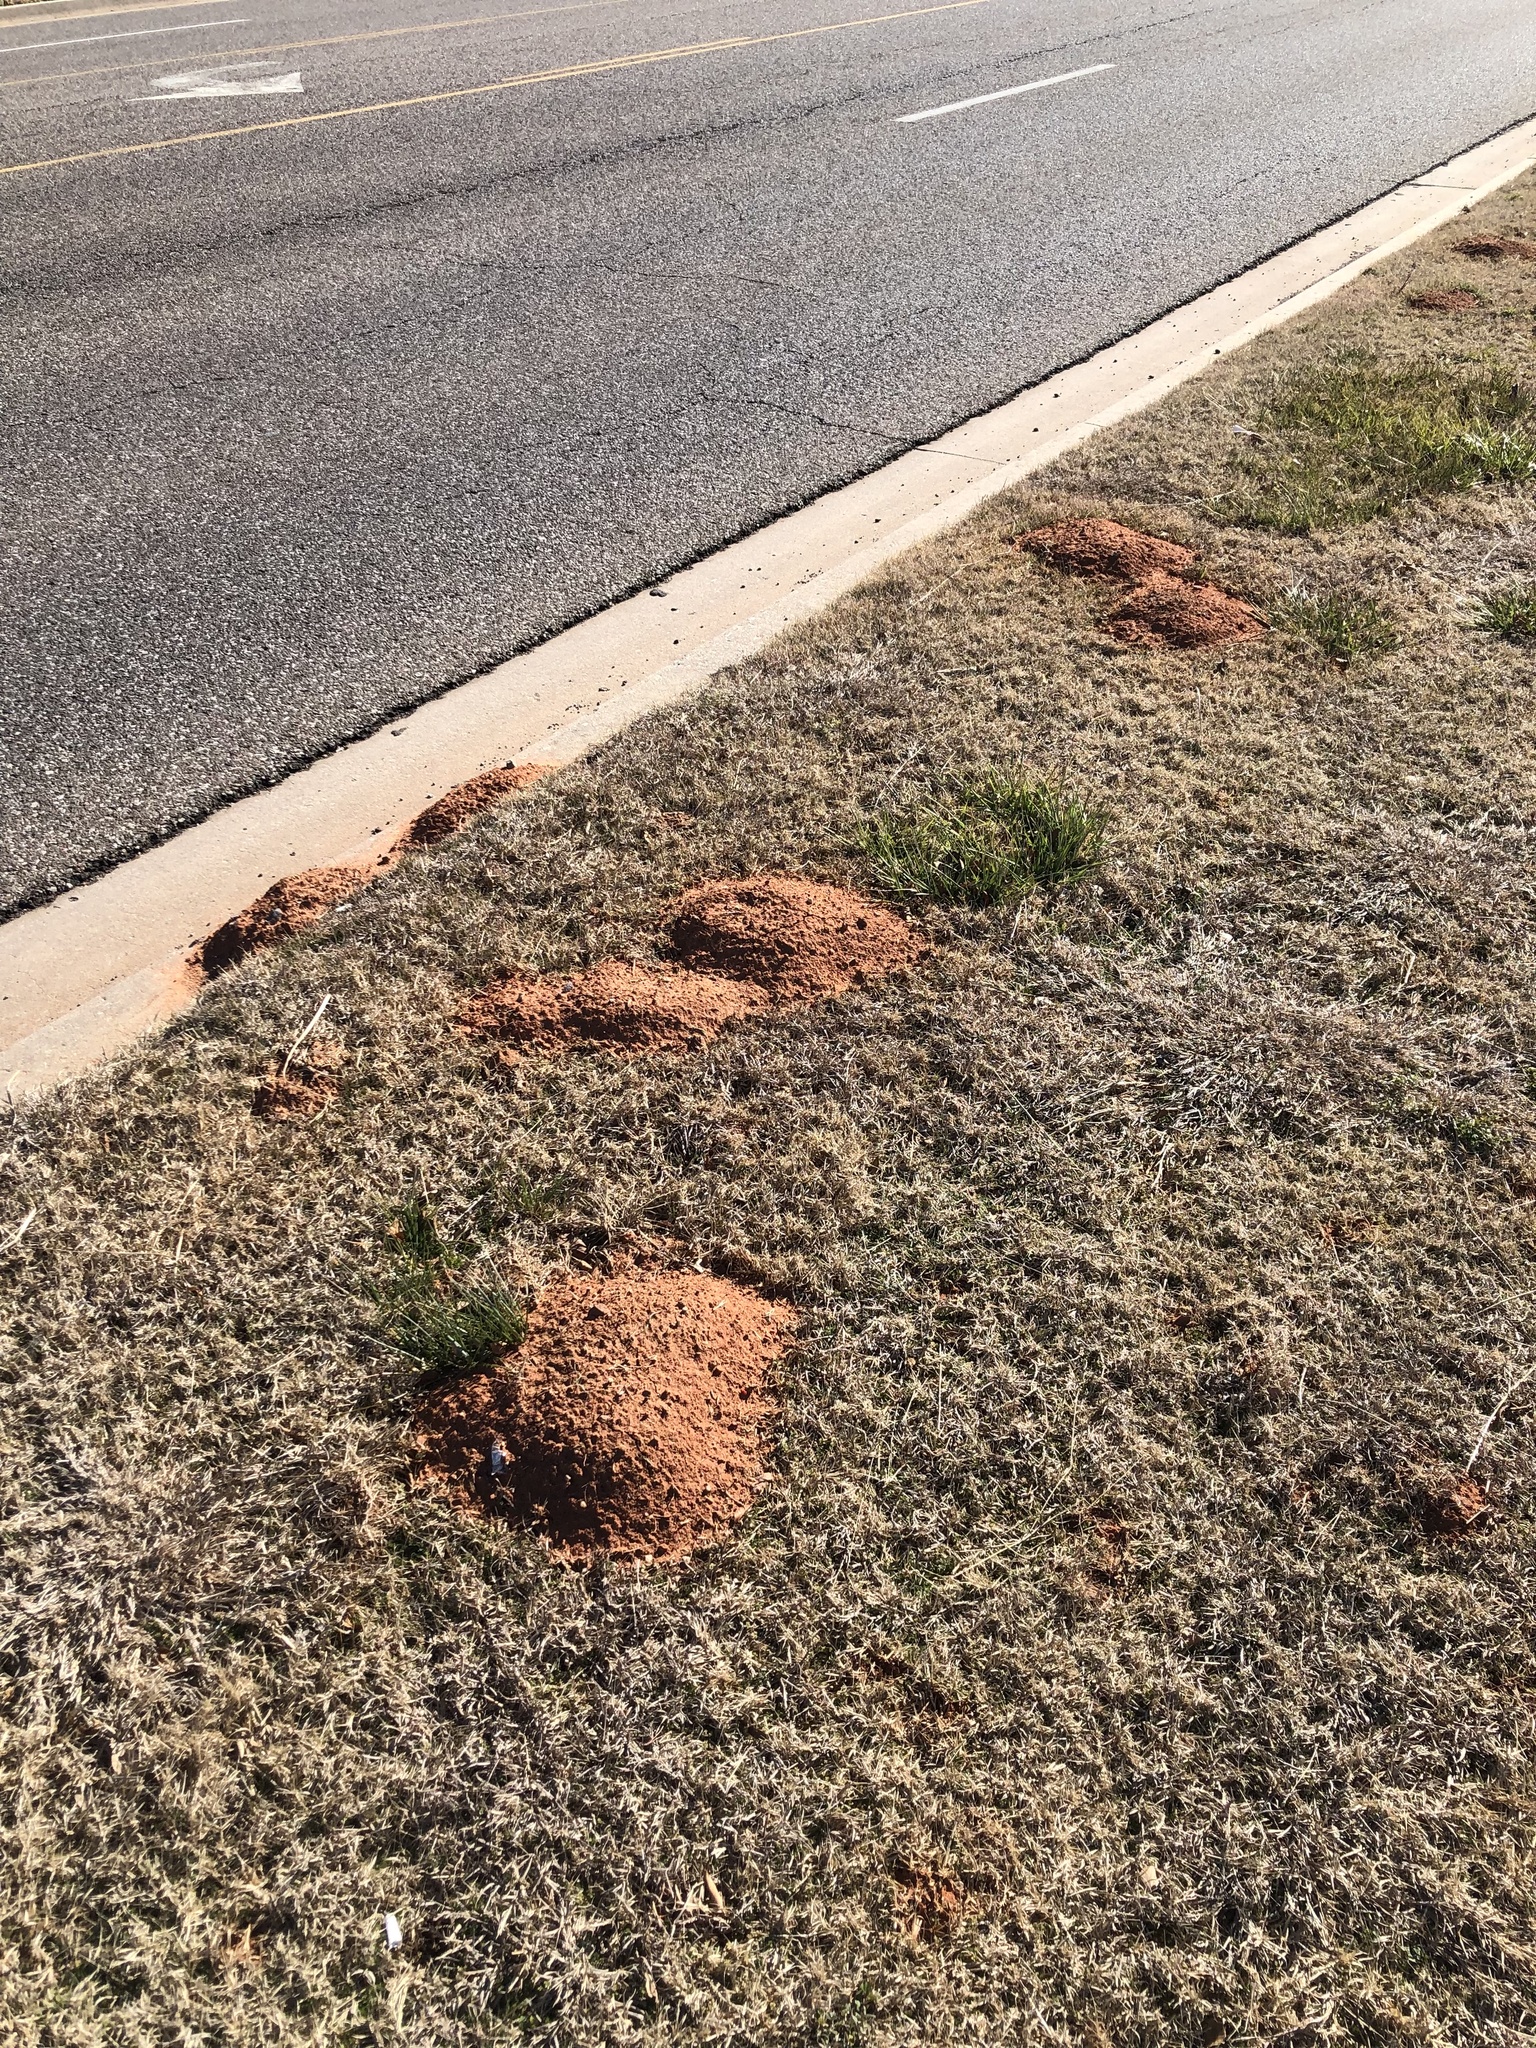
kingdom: Animalia
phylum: Chordata
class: Mammalia
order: Rodentia
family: Geomyidae
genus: Geomys
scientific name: Geomys bursarius
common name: Plains pocket gopher
